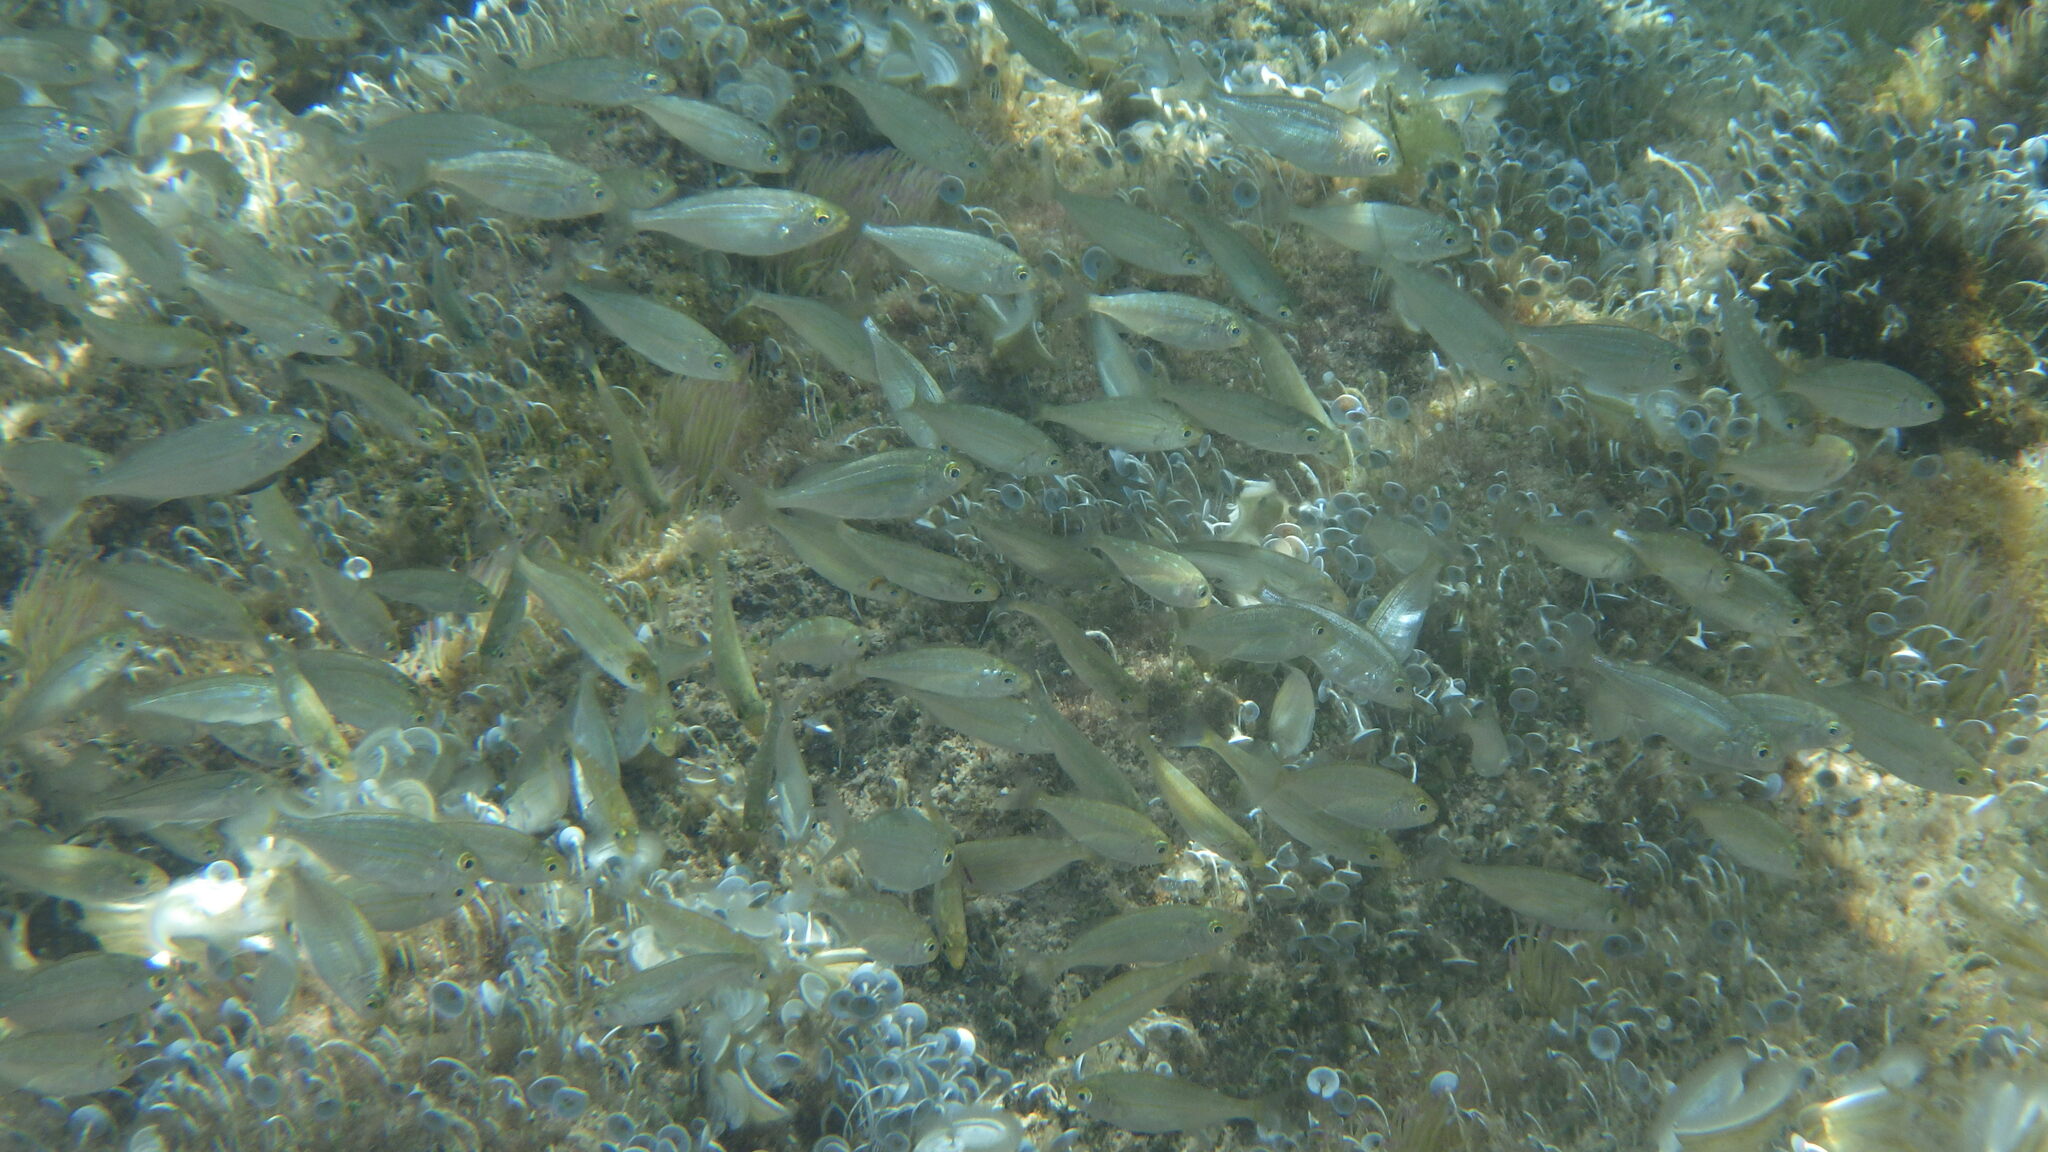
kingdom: Animalia
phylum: Chordata
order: Perciformes
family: Sparidae
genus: Sarpa
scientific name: Sarpa salpa
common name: Salema
